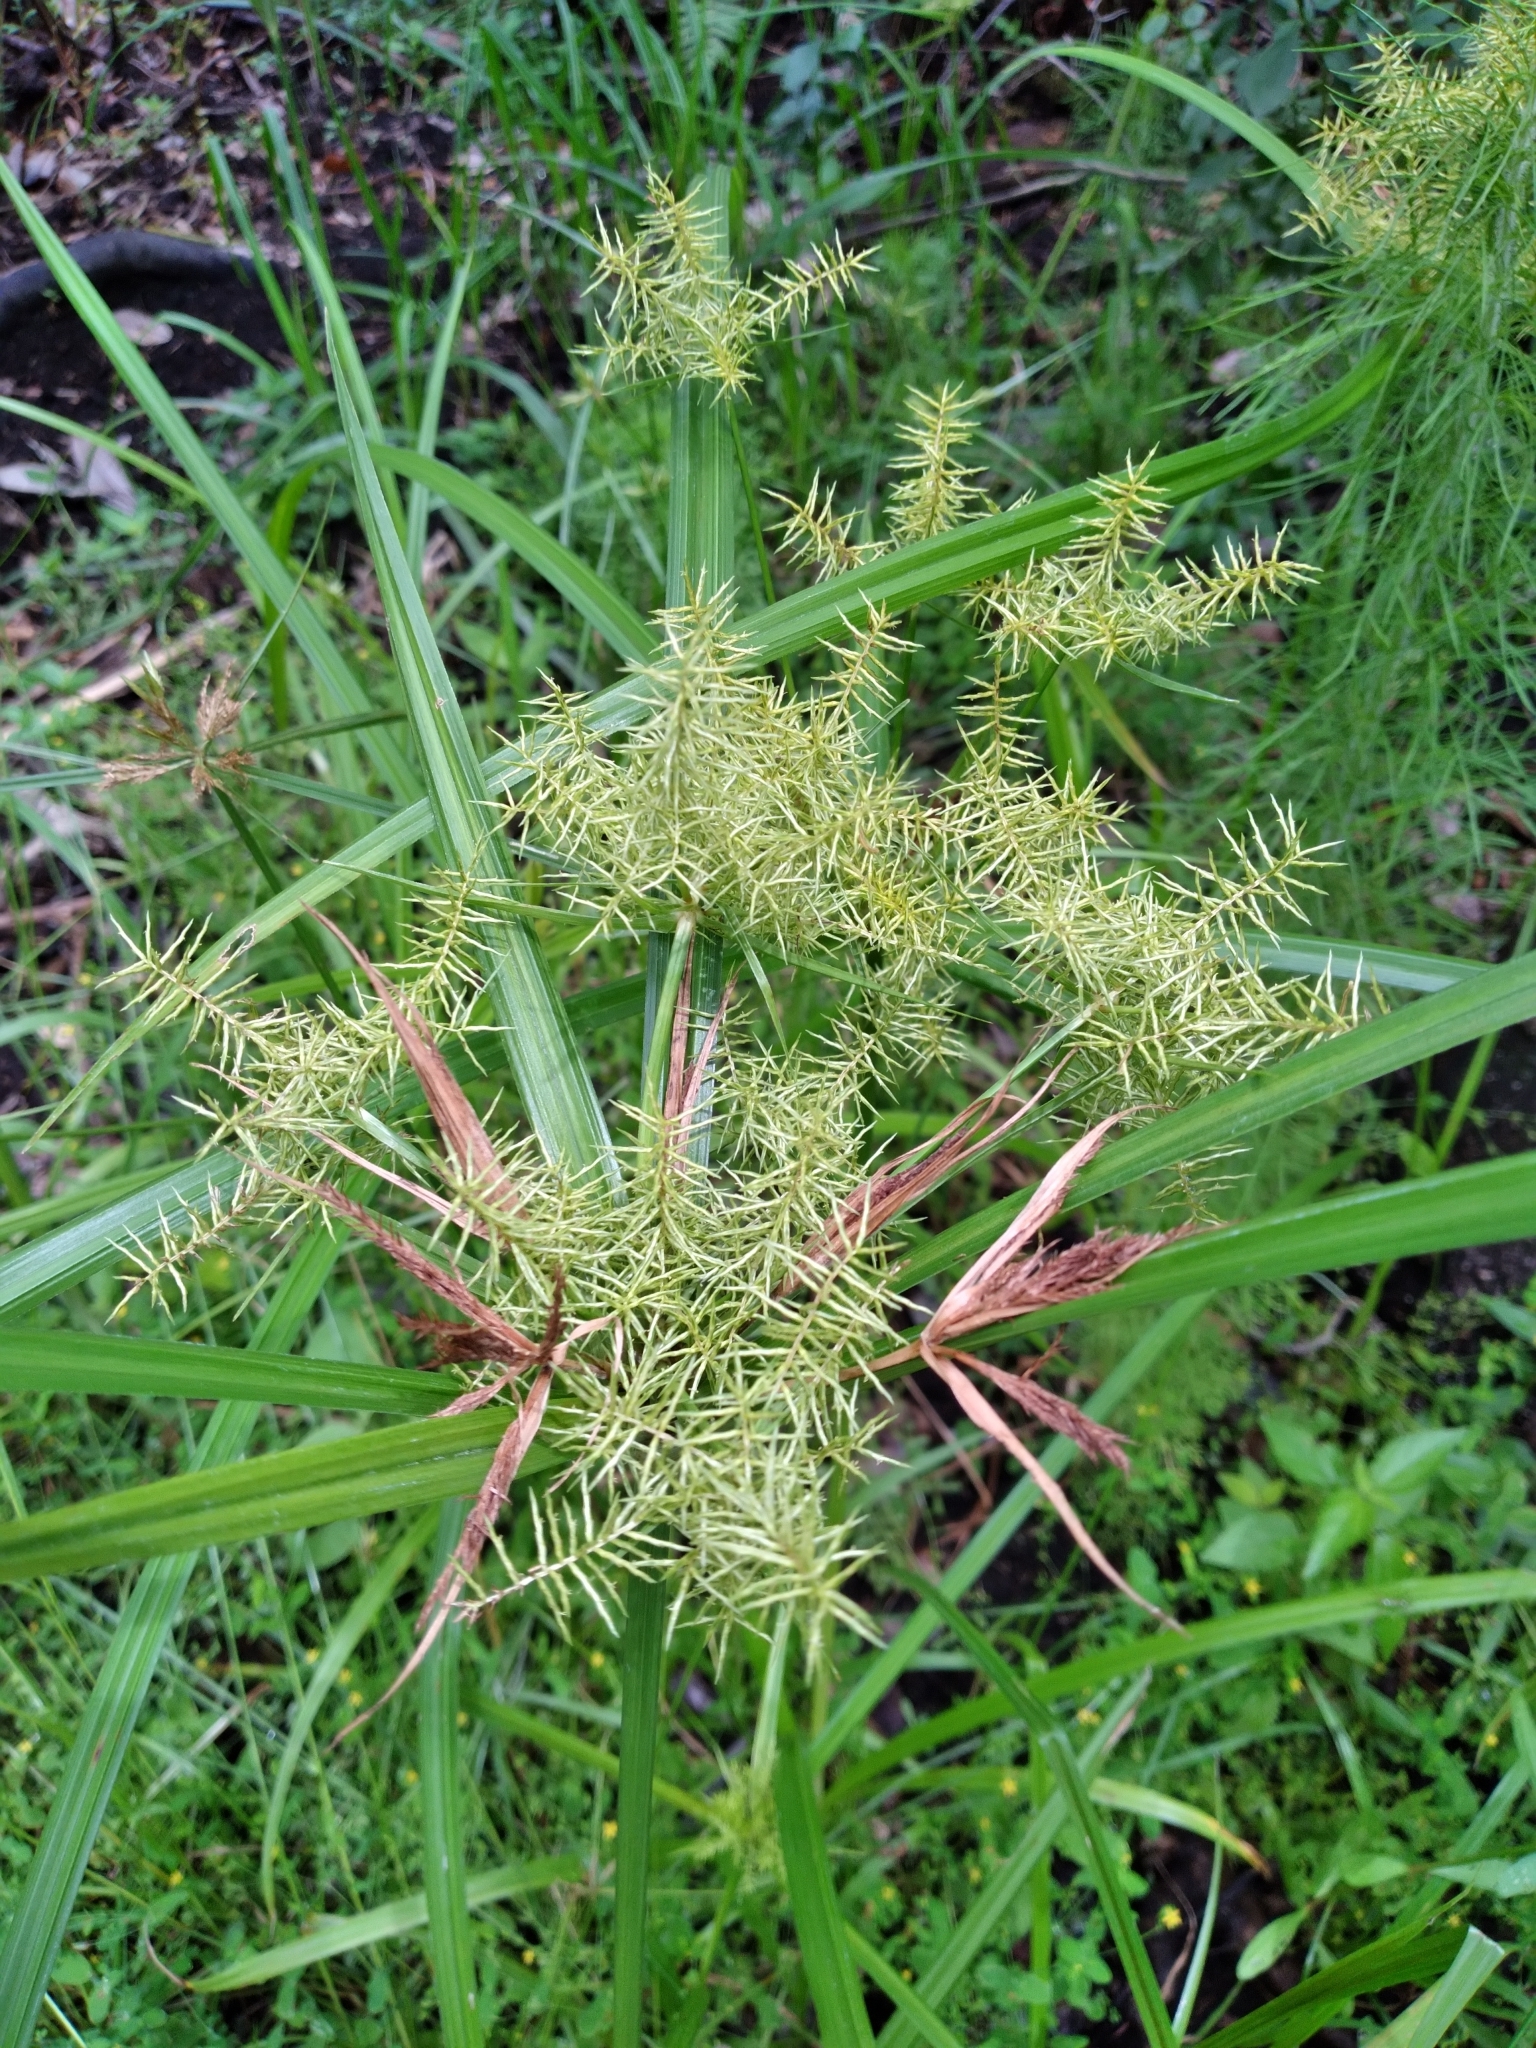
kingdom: Plantae
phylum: Tracheophyta
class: Liliopsida
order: Poales
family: Cyperaceae
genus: Cyperus
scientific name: Cyperus odoratus
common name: Fragrant flatsedge
